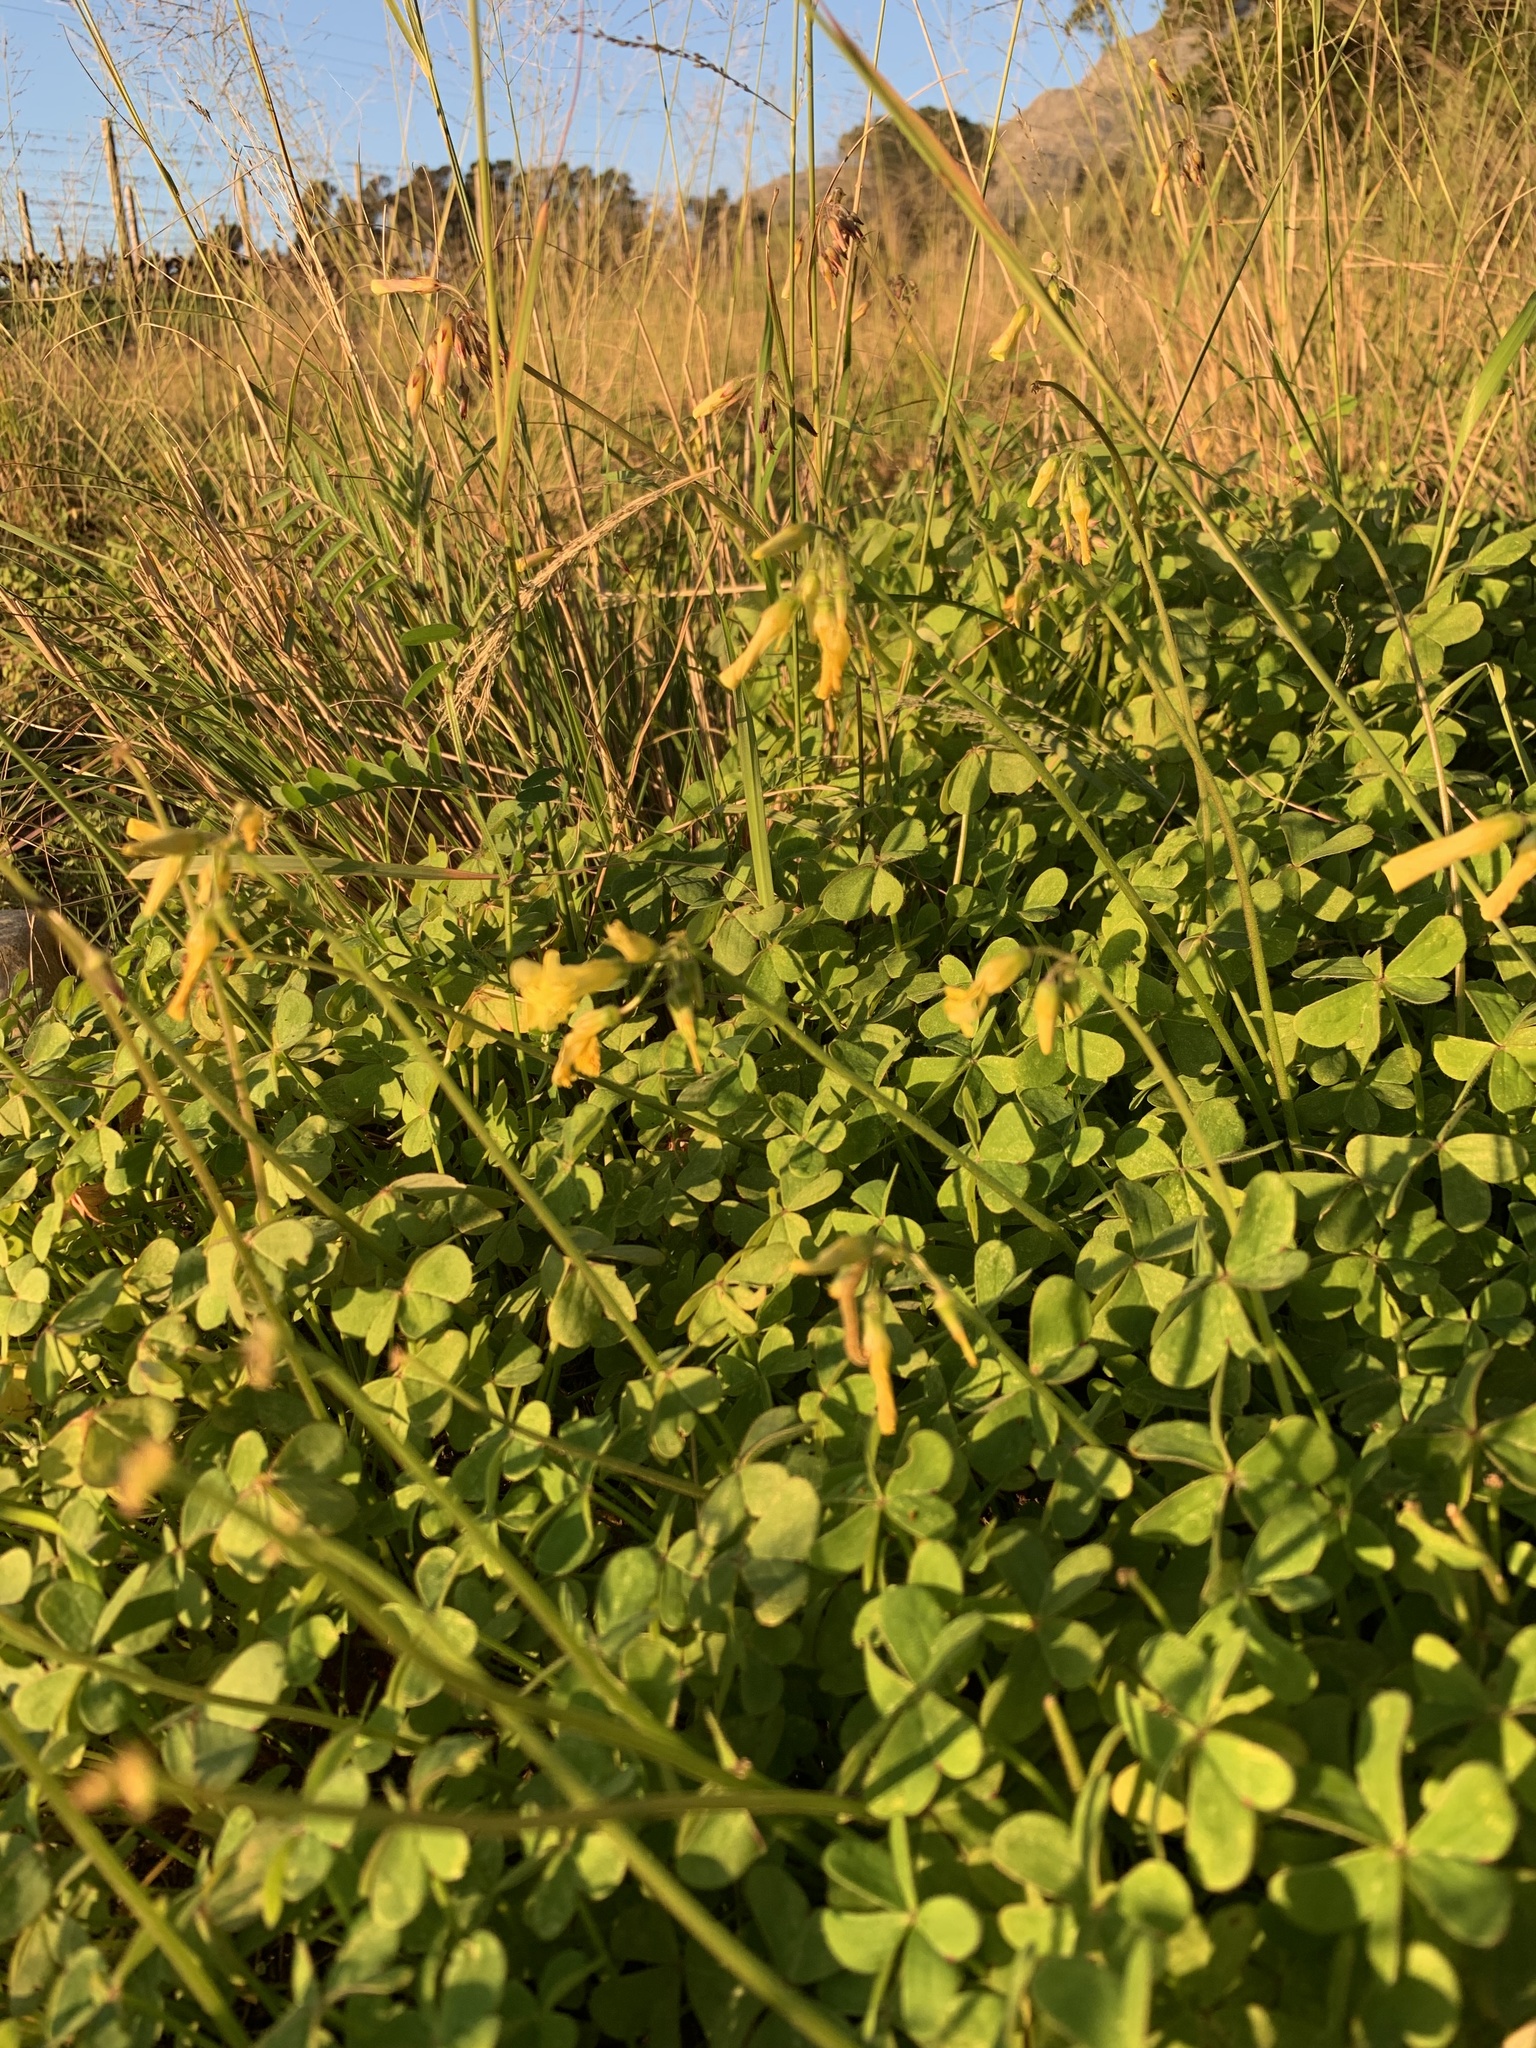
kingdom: Plantae
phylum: Tracheophyta
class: Magnoliopsida
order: Oxalidales
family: Oxalidaceae
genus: Oxalis
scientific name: Oxalis pes-caprae
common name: Bermuda-buttercup
